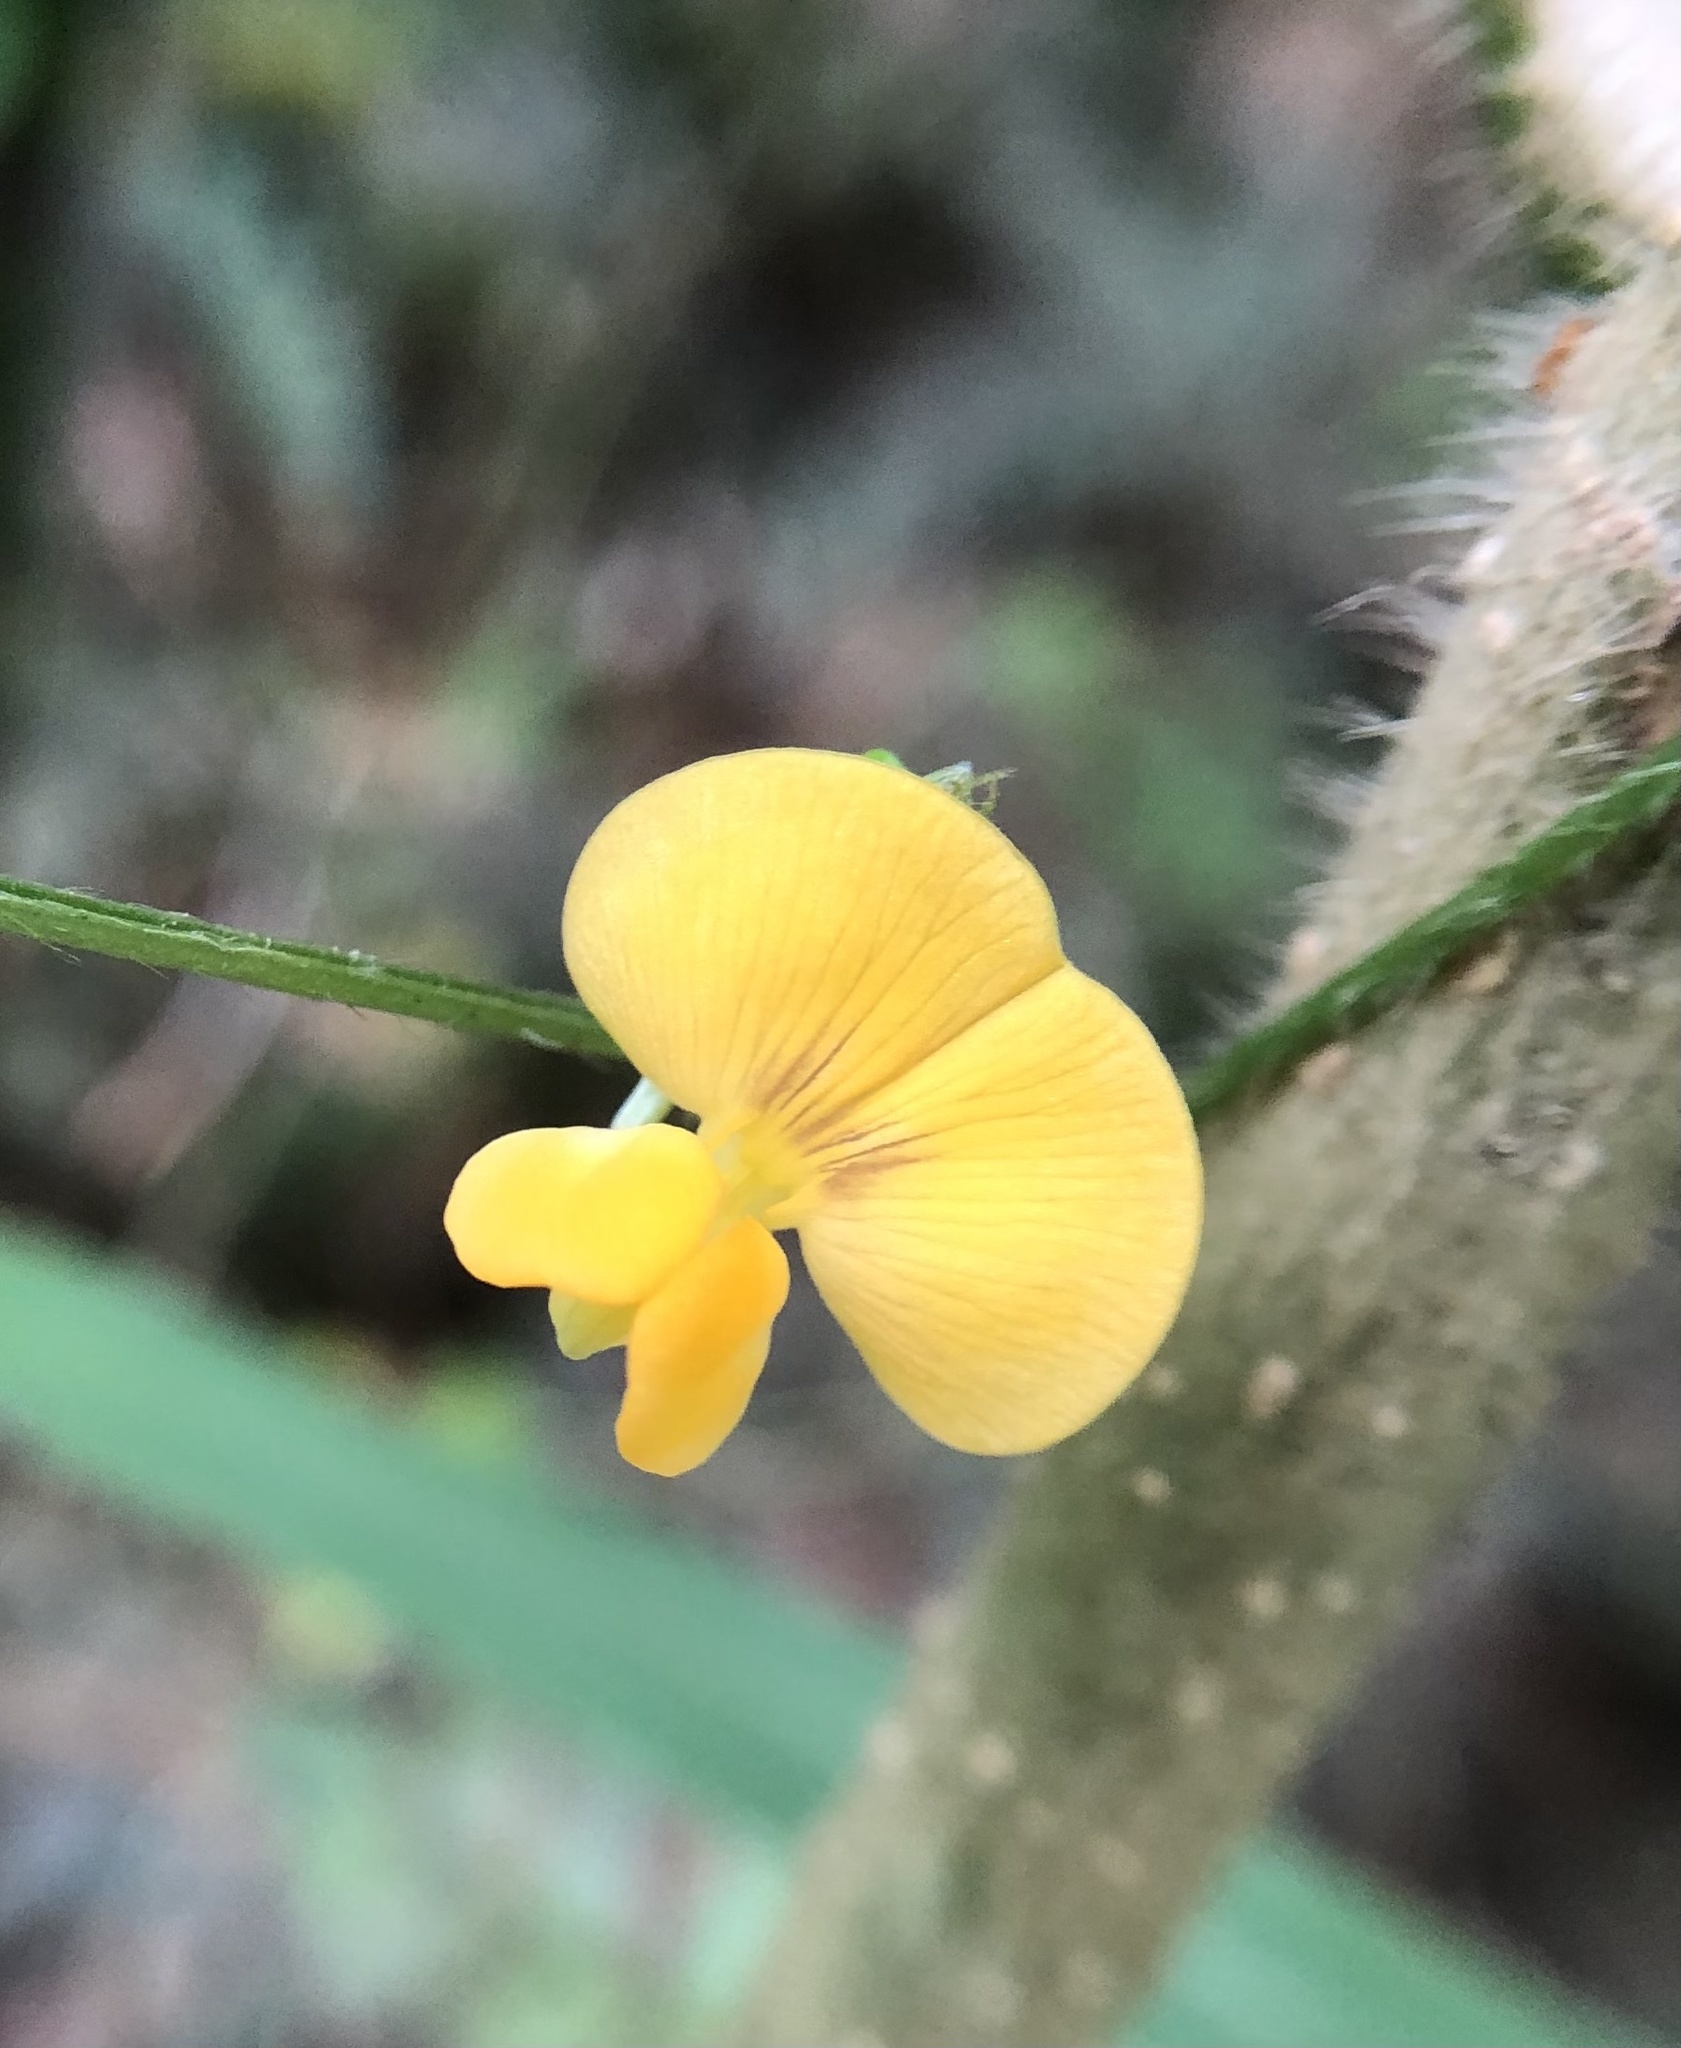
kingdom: Plantae
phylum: Tracheophyta
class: Magnoliopsida
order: Fabales
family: Fabaceae
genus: Vigna
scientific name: Vigna luteola
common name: Hairypod cowpea
